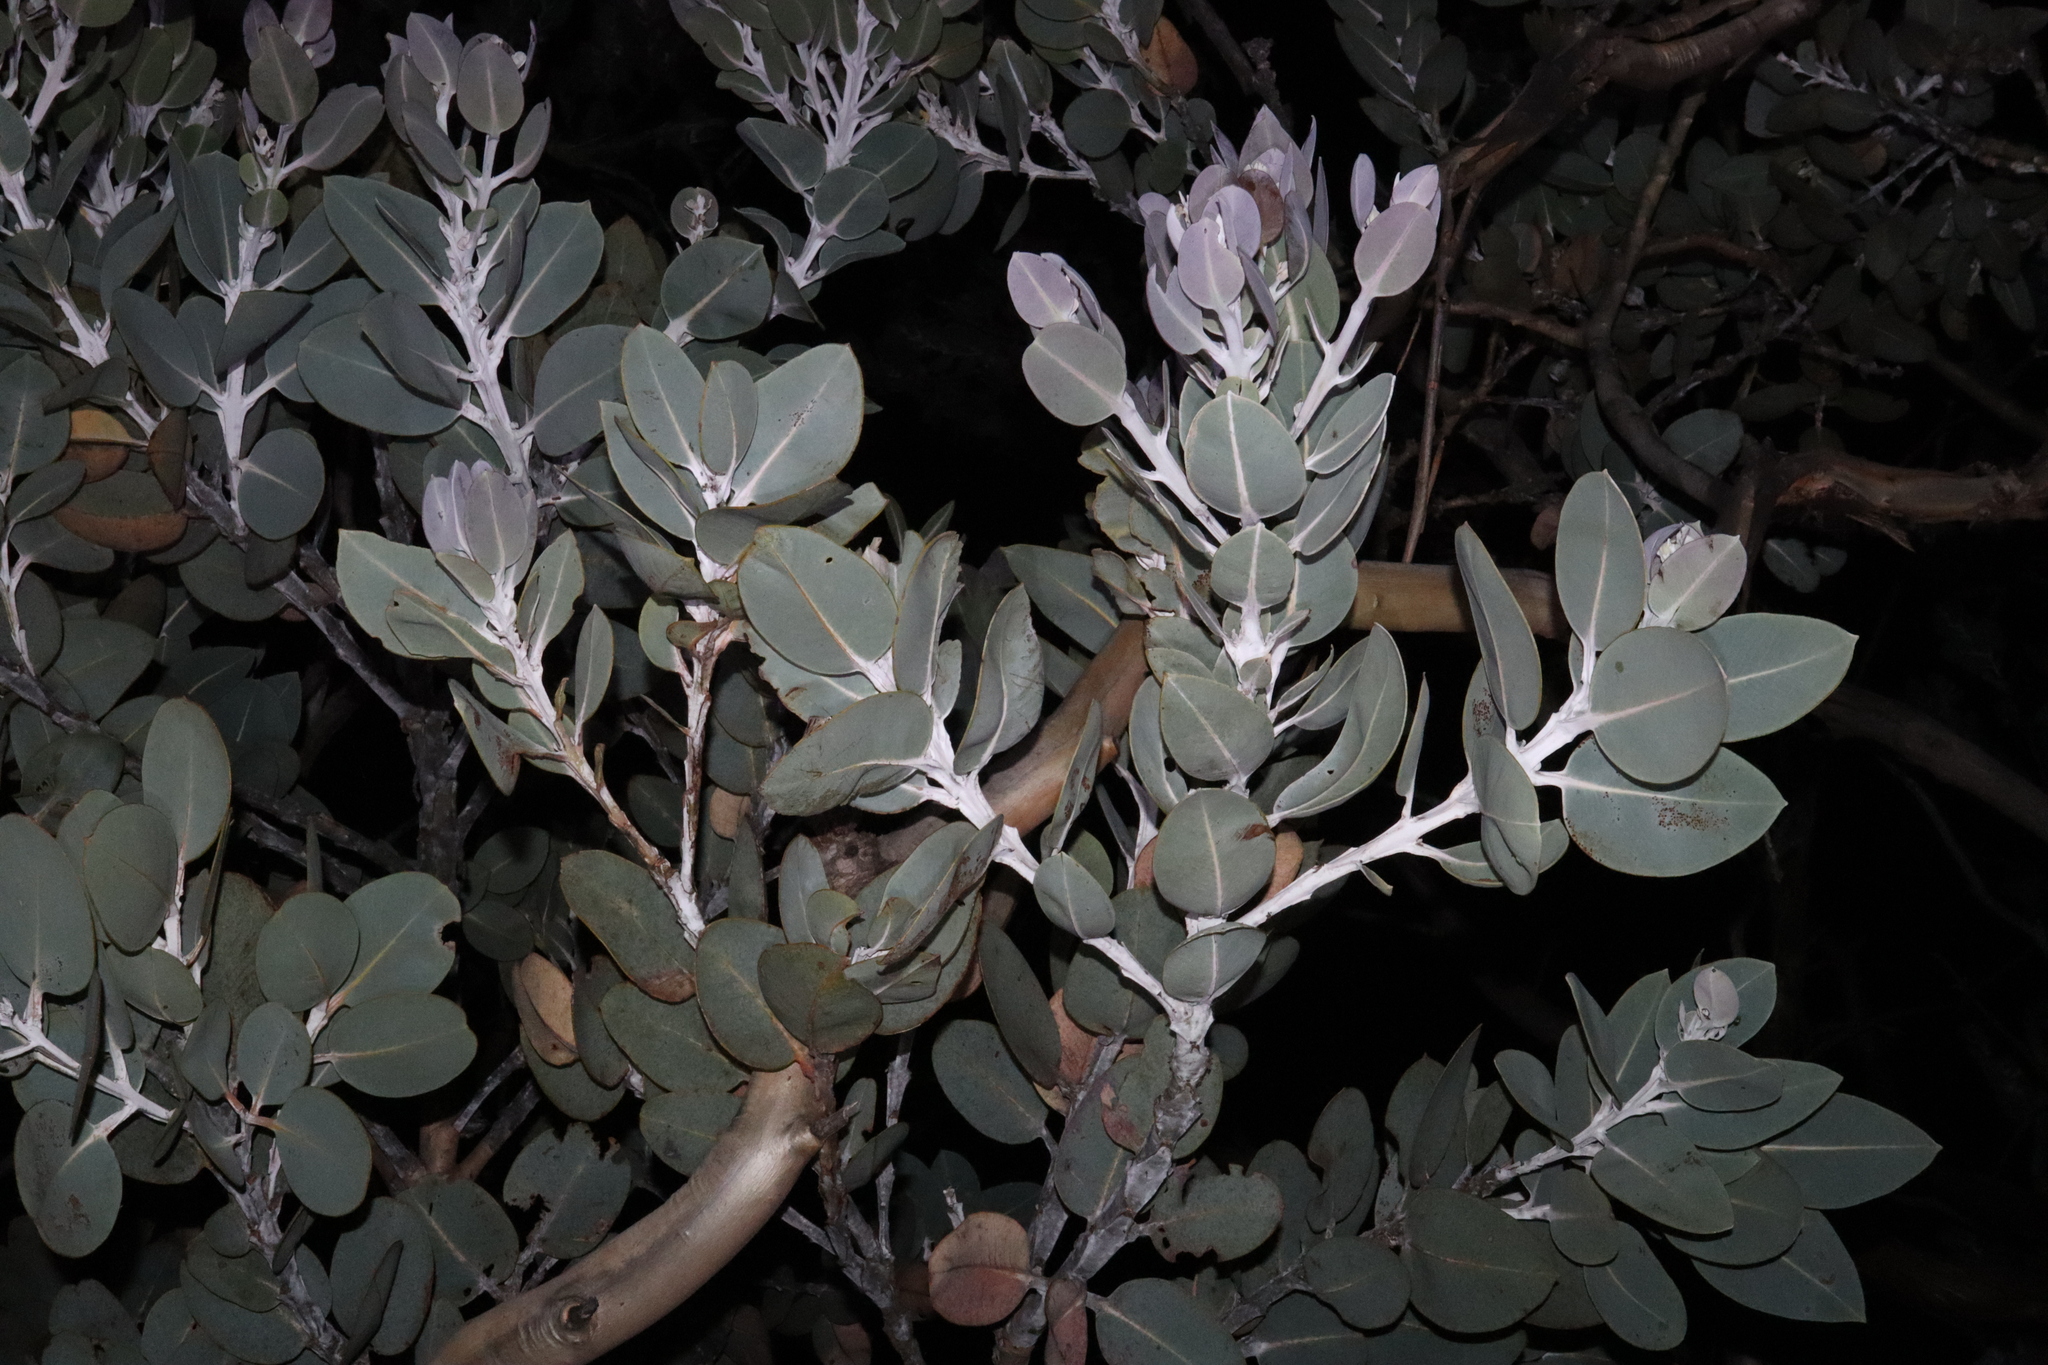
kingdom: Plantae
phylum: Tracheophyta
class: Magnoliopsida
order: Myrtales
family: Myrtaceae
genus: Eucalyptus
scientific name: Eucalyptus tetragona
